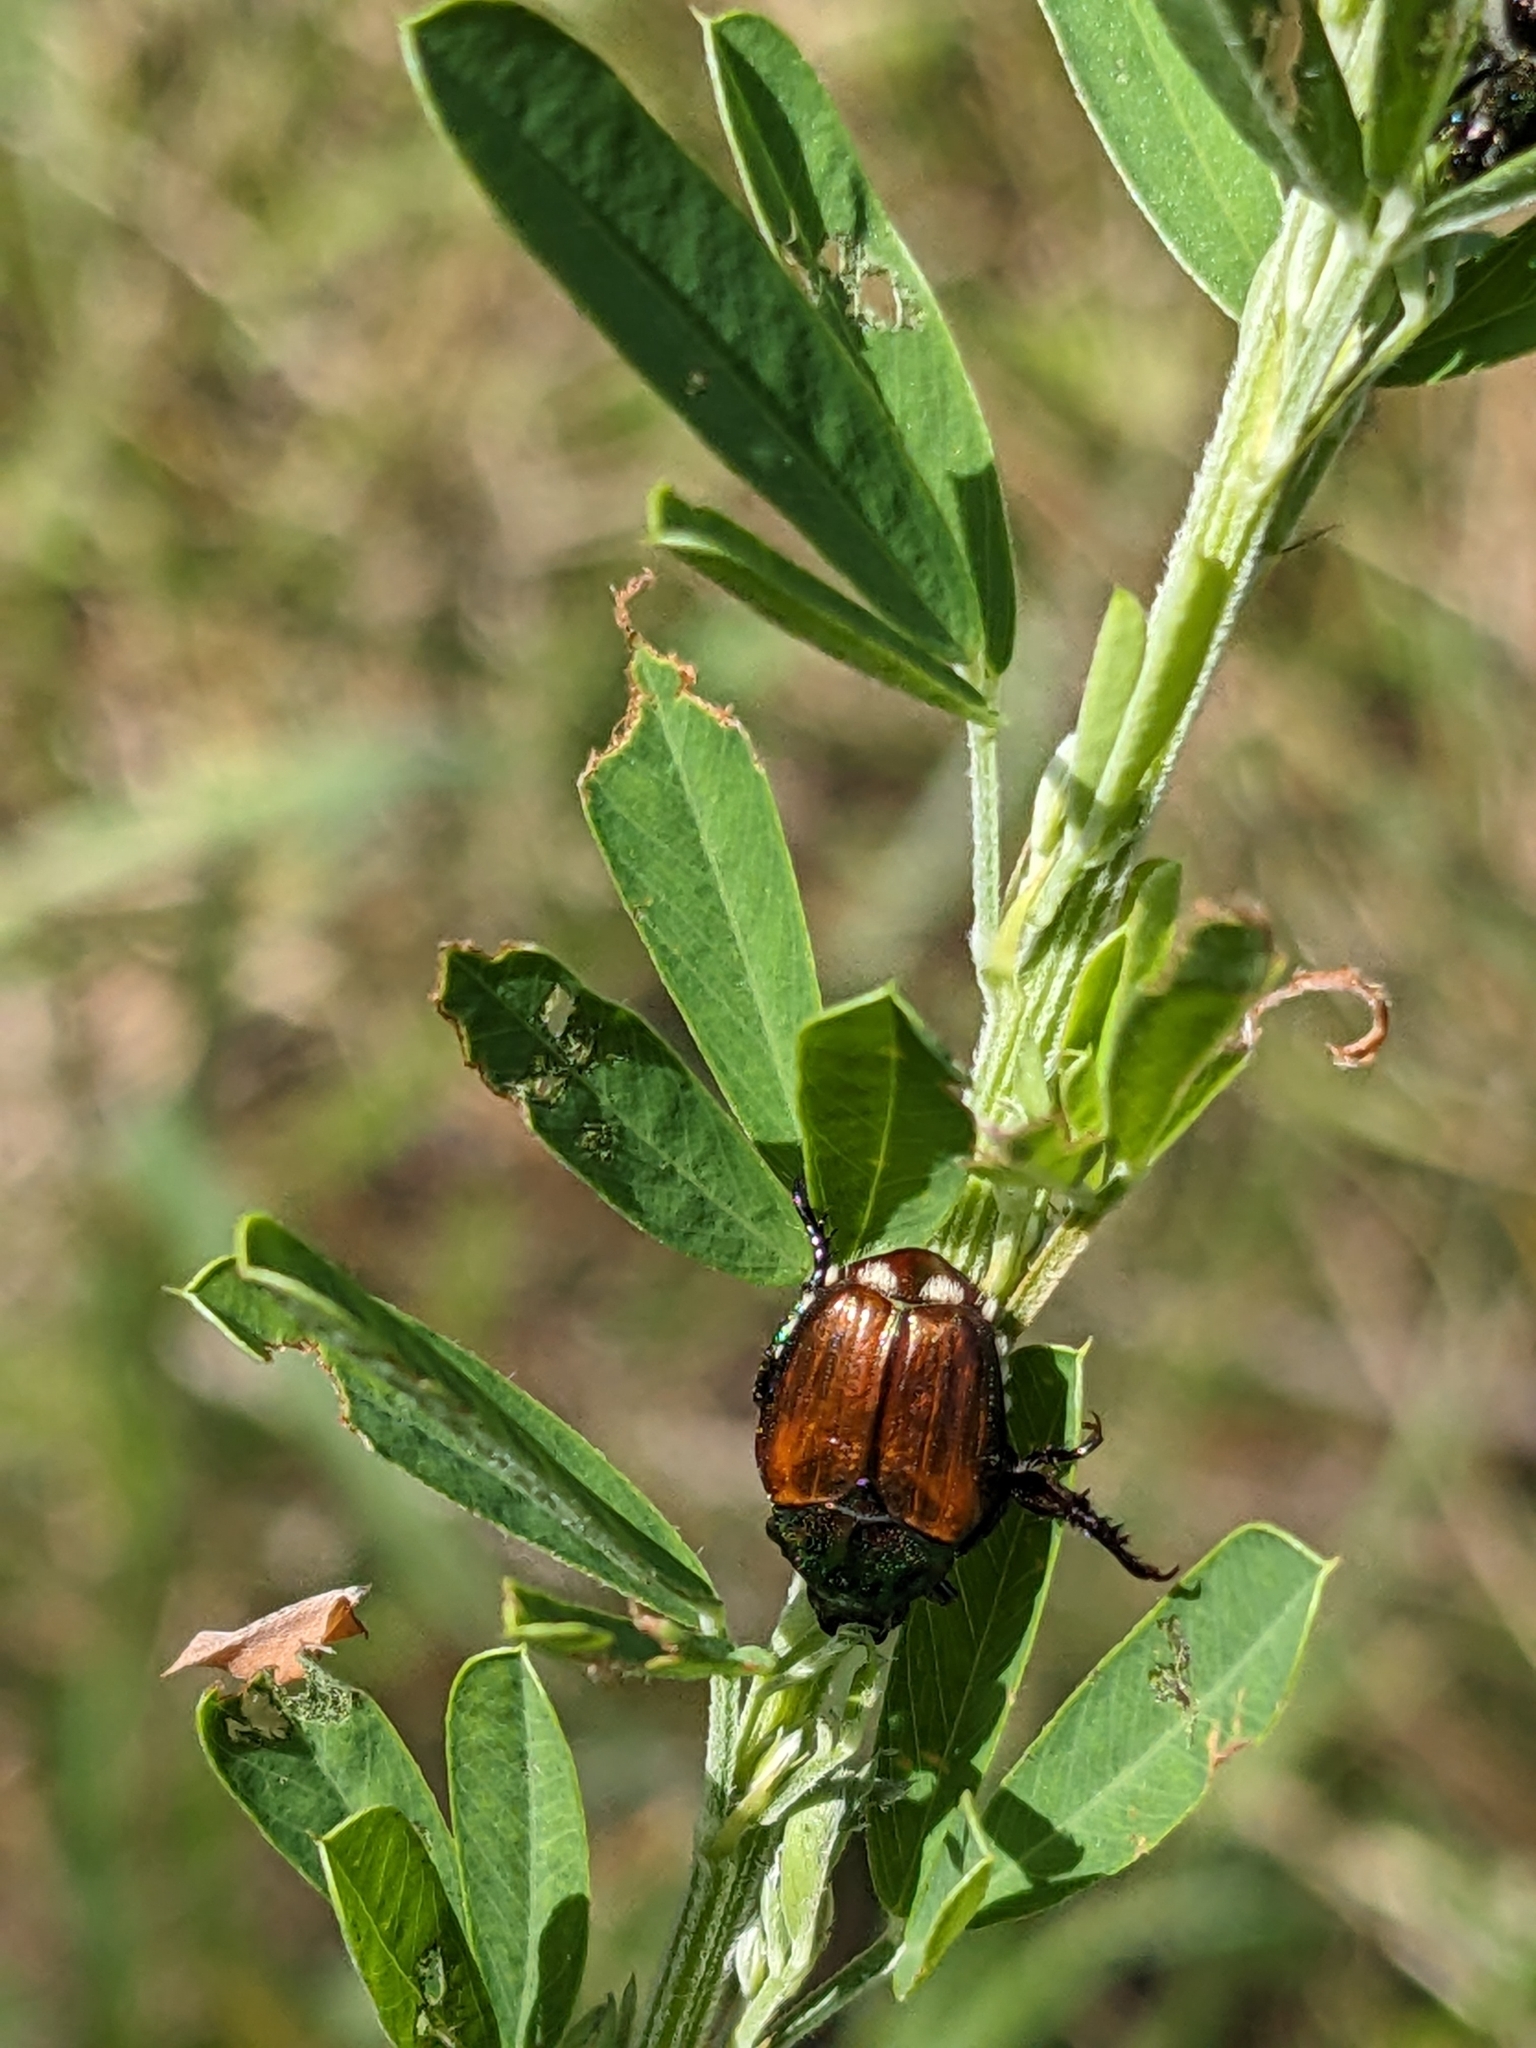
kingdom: Animalia
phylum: Arthropoda
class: Insecta
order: Coleoptera
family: Scarabaeidae
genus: Popillia
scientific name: Popillia japonica
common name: Japanese beetle
